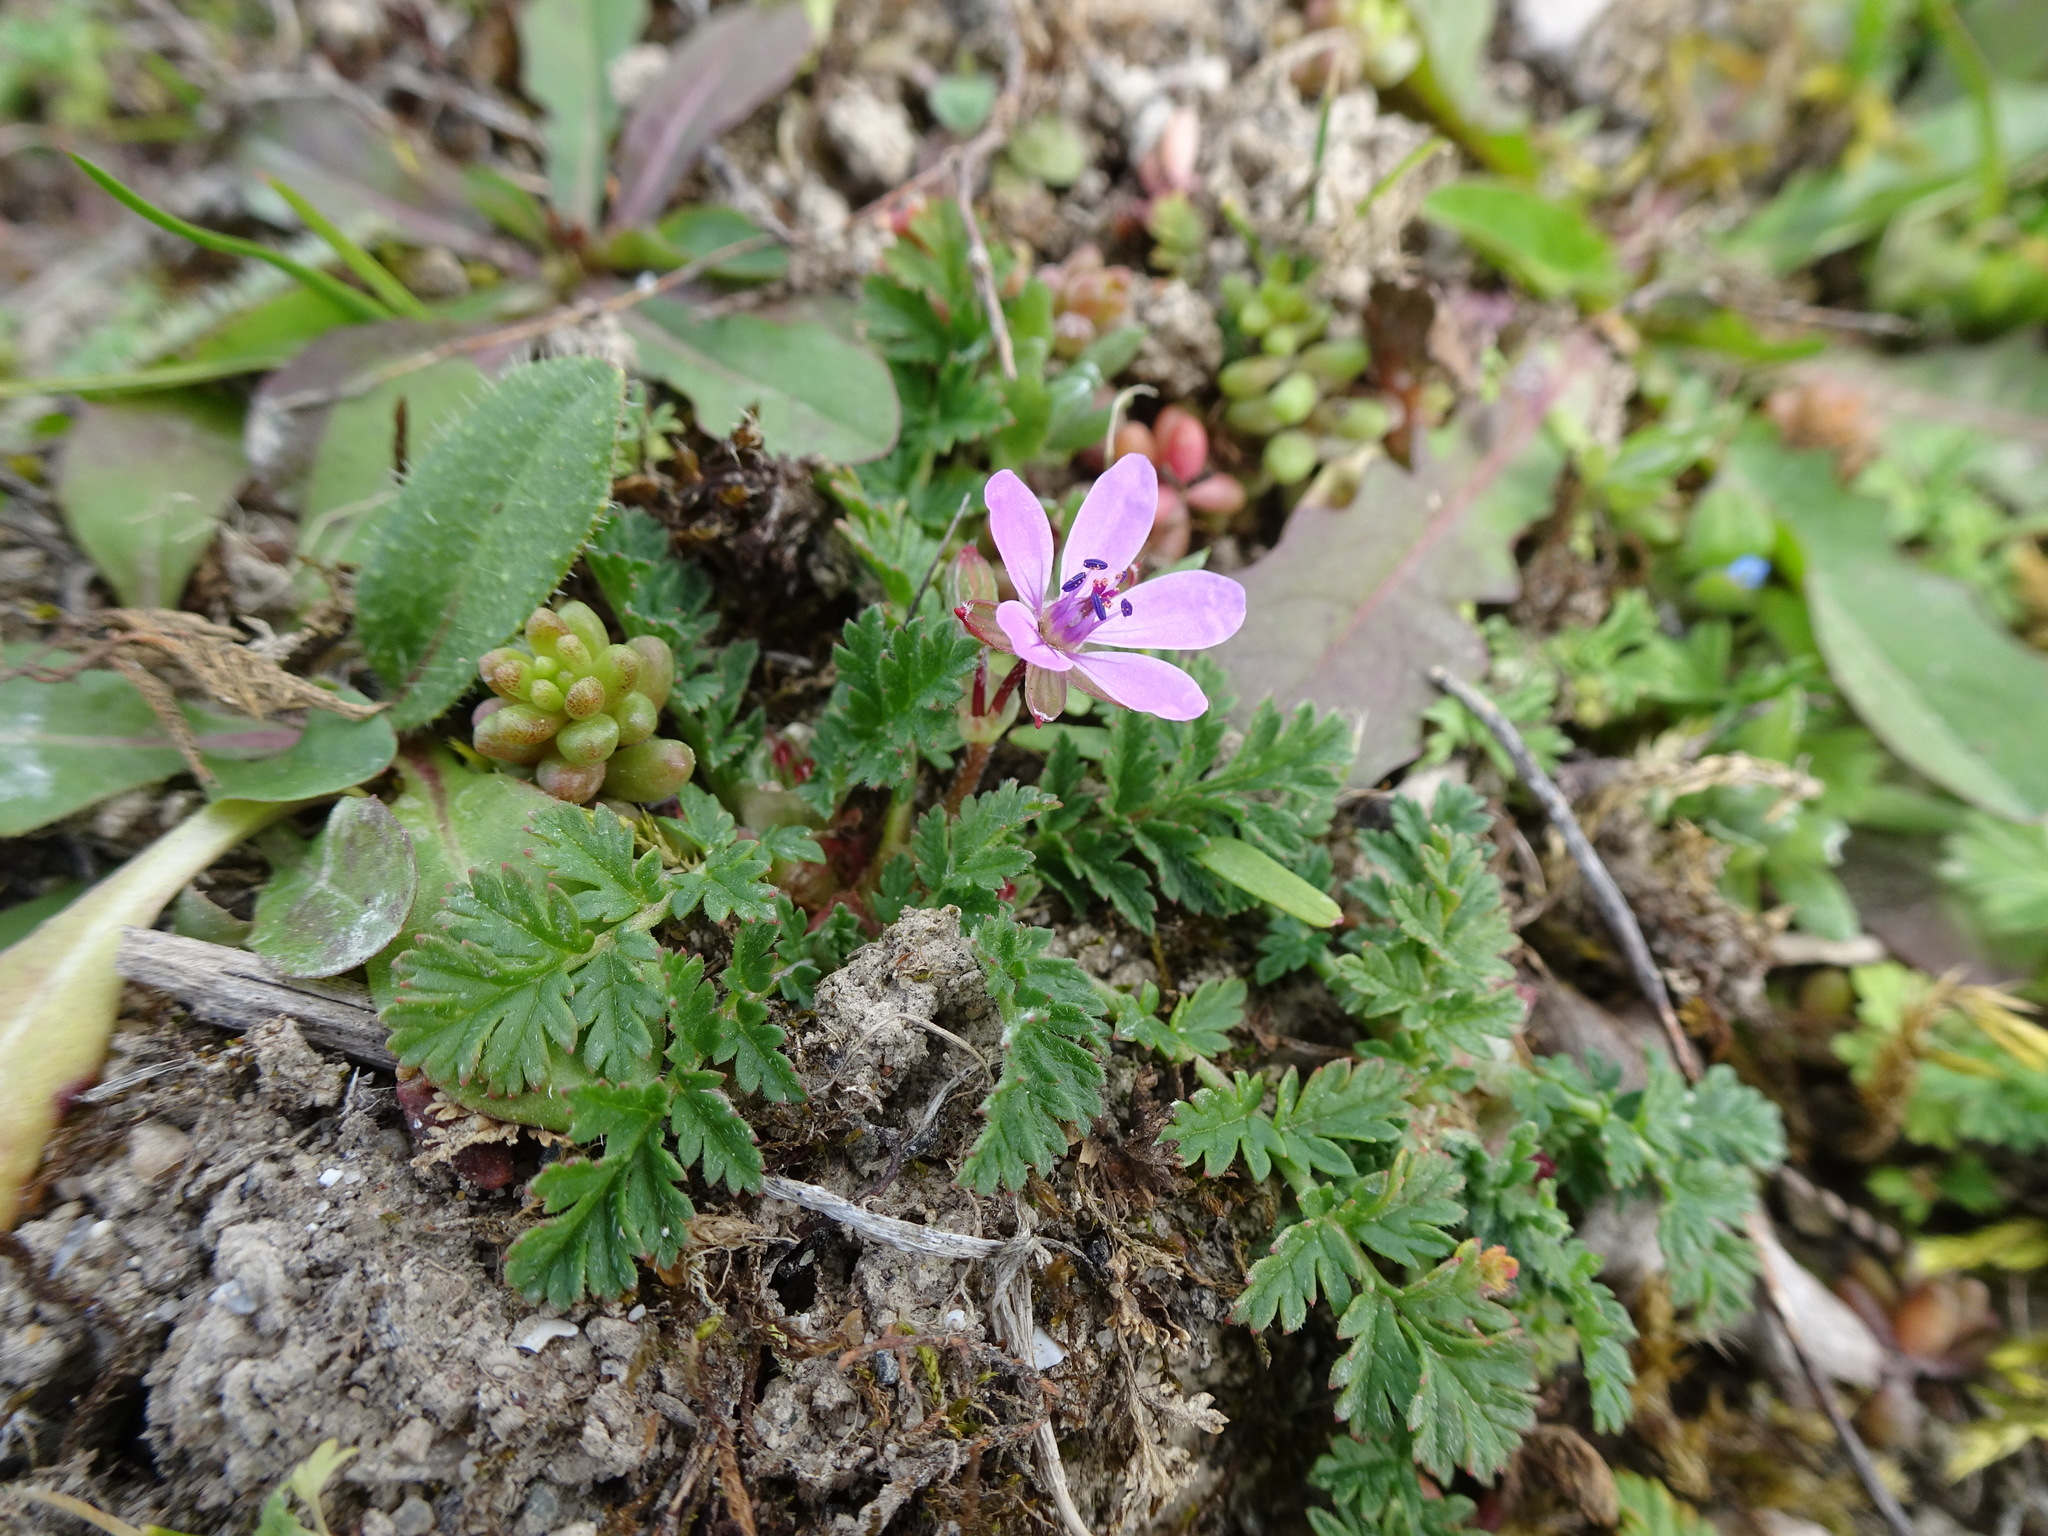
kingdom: Plantae
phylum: Tracheophyta
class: Magnoliopsida
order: Geraniales
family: Geraniaceae
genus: Erodium
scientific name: Erodium cicutarium
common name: Common stork's-bill
